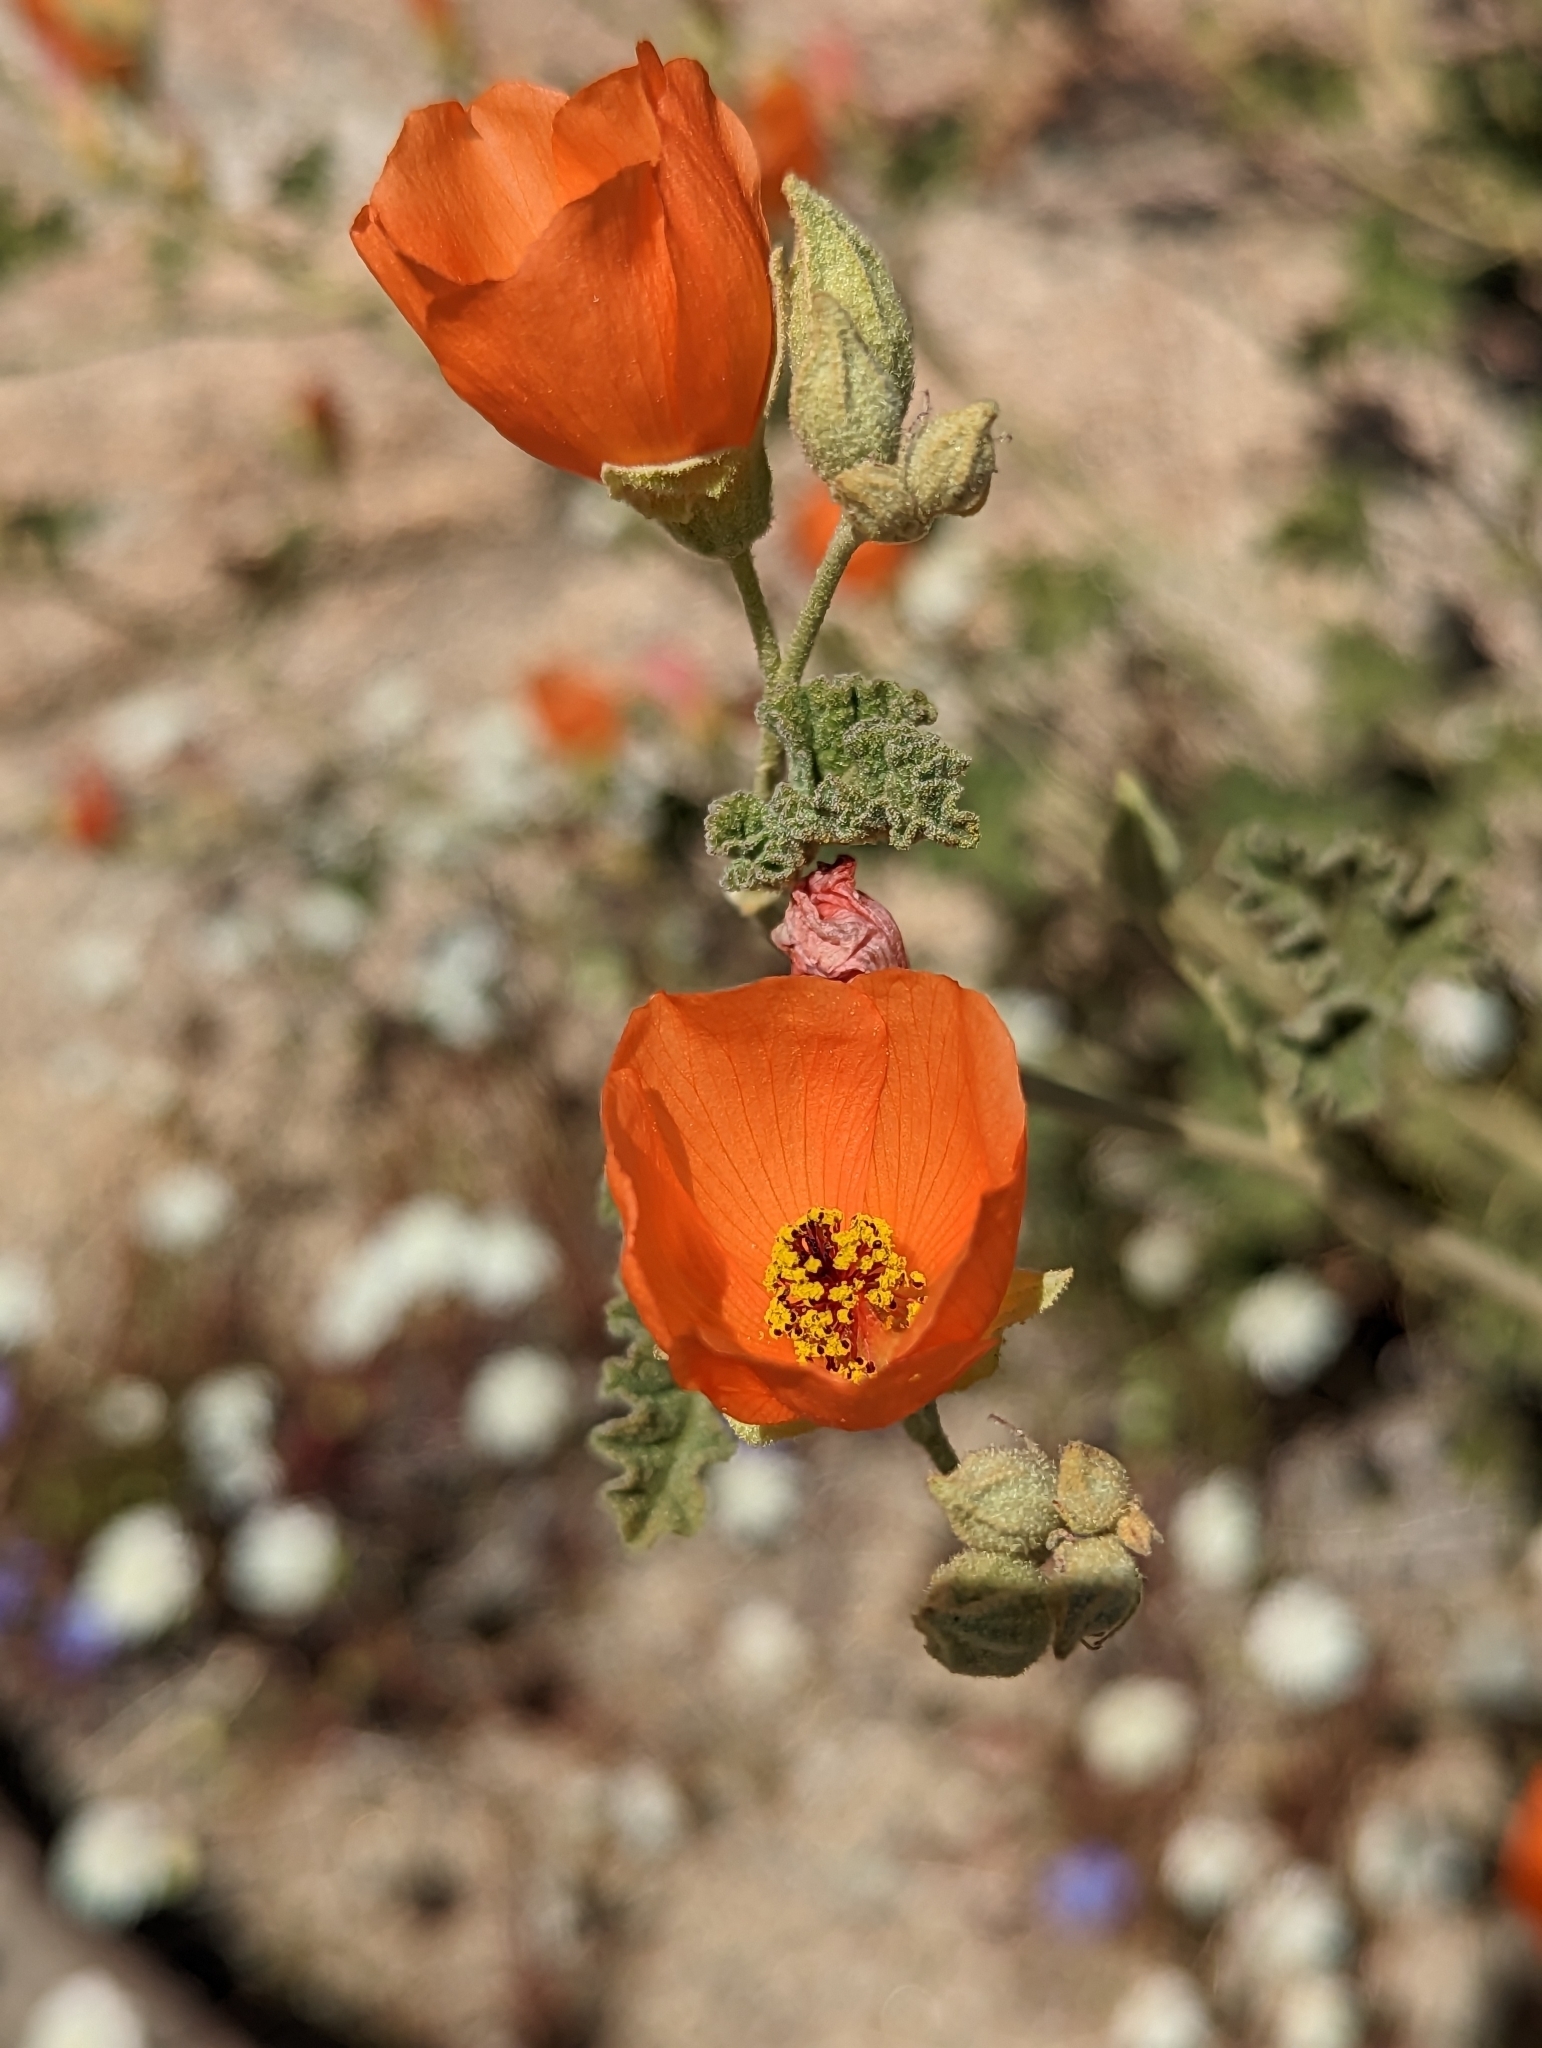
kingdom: Plantae
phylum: Tracheophyta
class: Magnoliopsida
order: Malvales
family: Malvaceae
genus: Sphaeralcea
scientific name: Sphaeralcea ambigua
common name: Apricot globe-mallow
